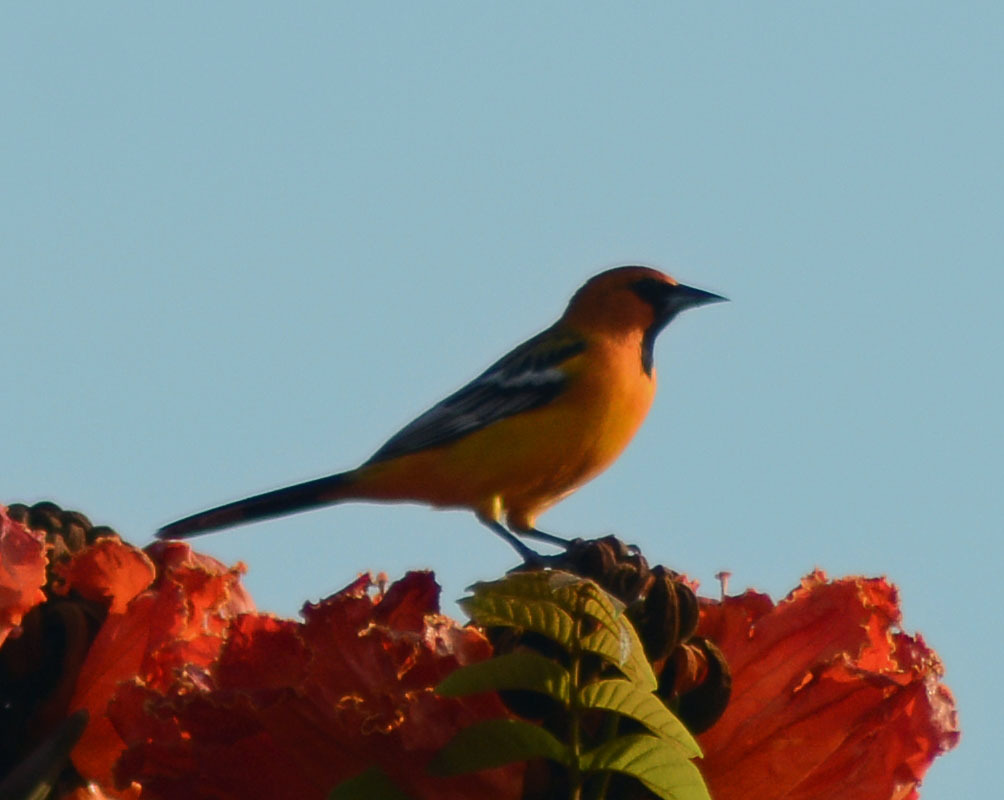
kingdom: Animalia
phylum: Chordata
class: Aves
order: Passeriformes
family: Icteridae
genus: Icterus
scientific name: Icterus pustulatus
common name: Streak-backed oriole
